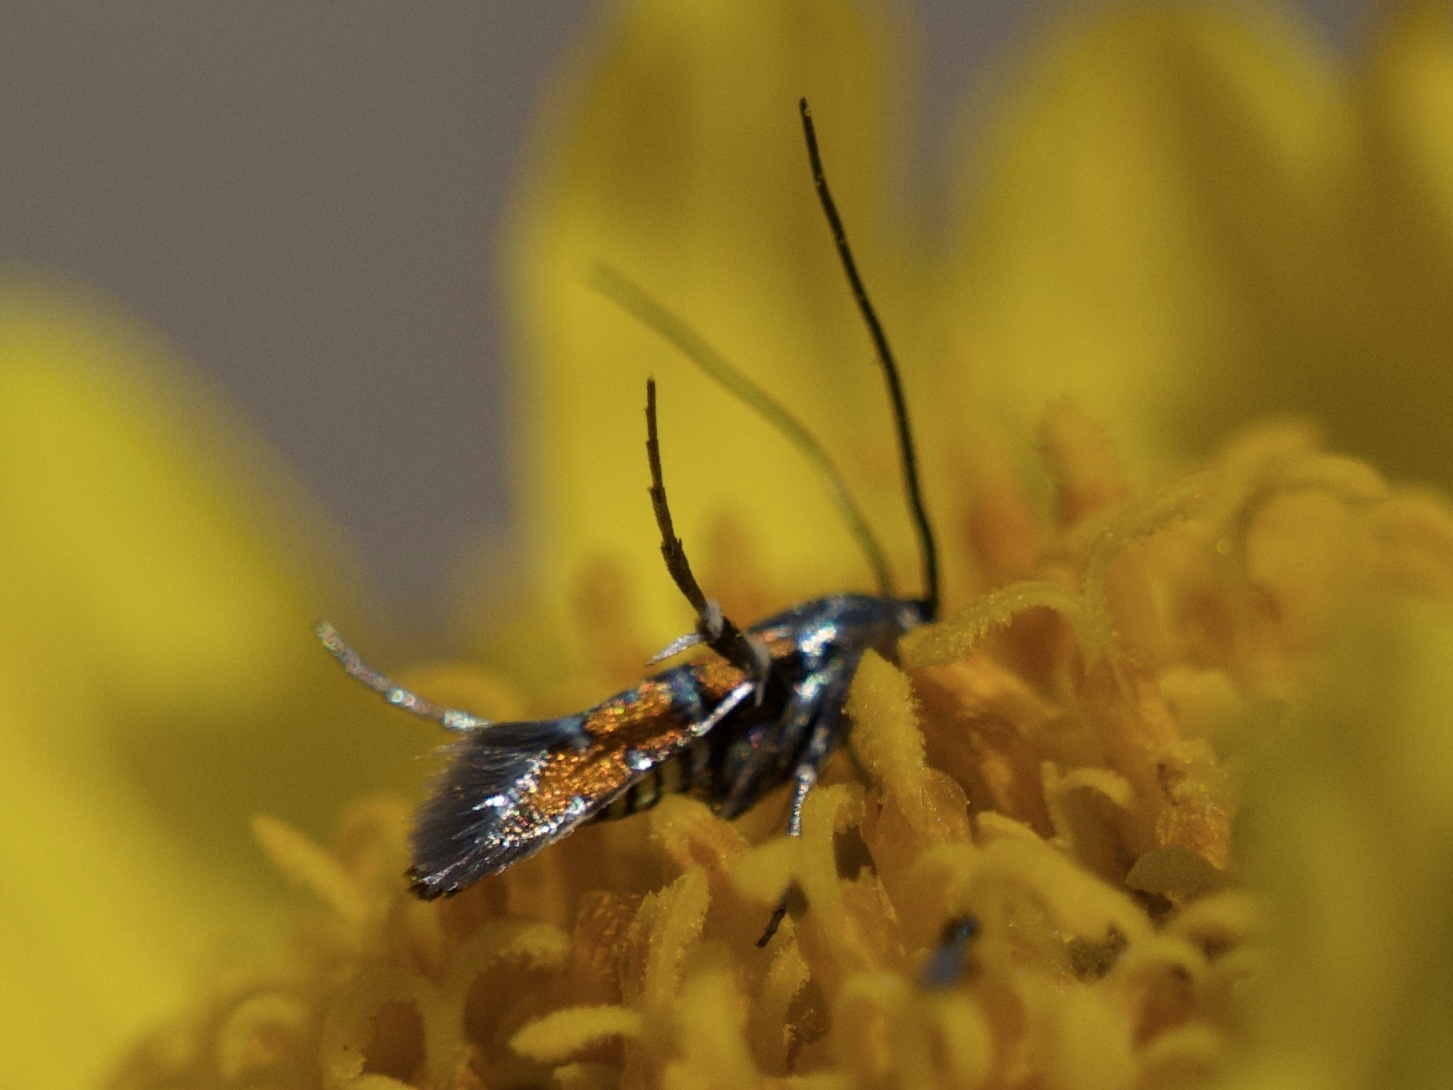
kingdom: Animalia
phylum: Arthropoda
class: Insecta
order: Lepidoptera
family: Heliodinidae
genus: Heliodines
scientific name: Heliodines Aetole tripunctella
